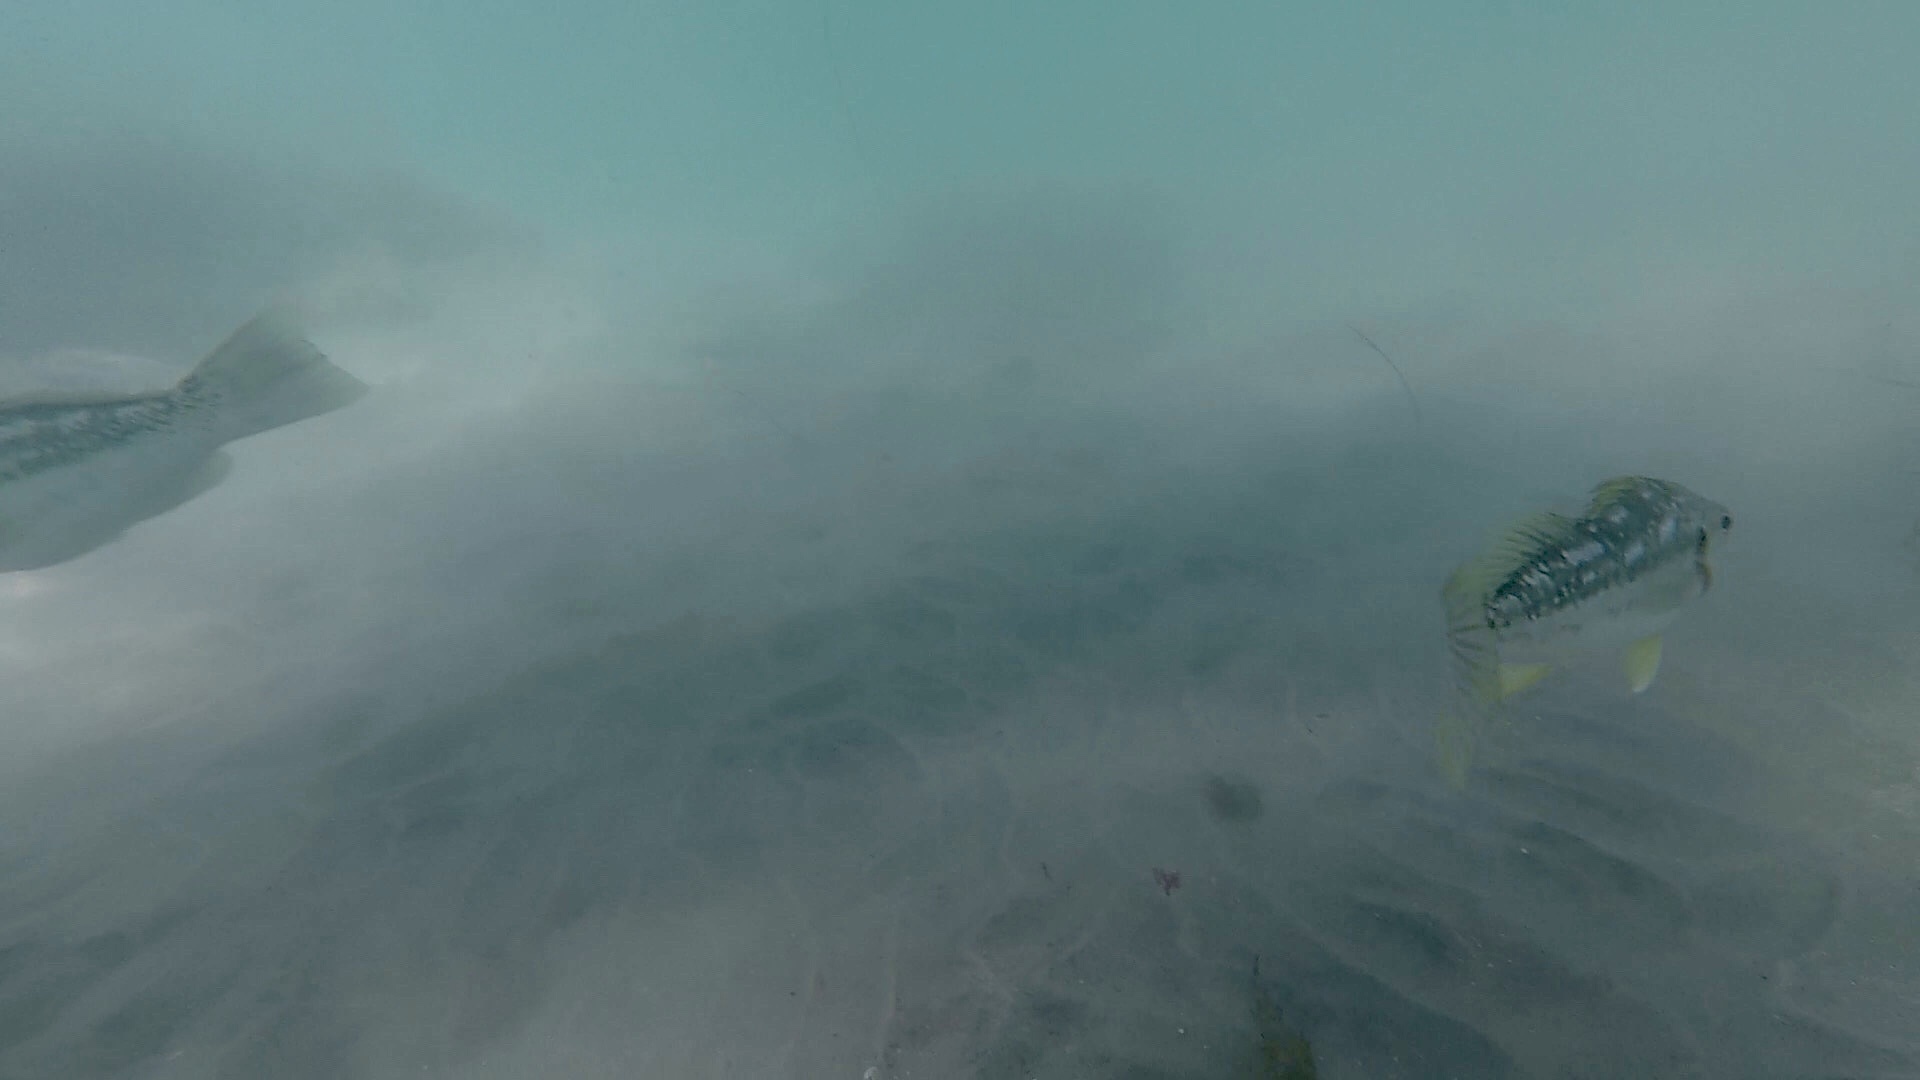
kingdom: Animalia
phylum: Chordata
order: Perciformes
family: Serranidae
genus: Paralabrax
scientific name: Paralabrax clathratus
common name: Kelp bass
